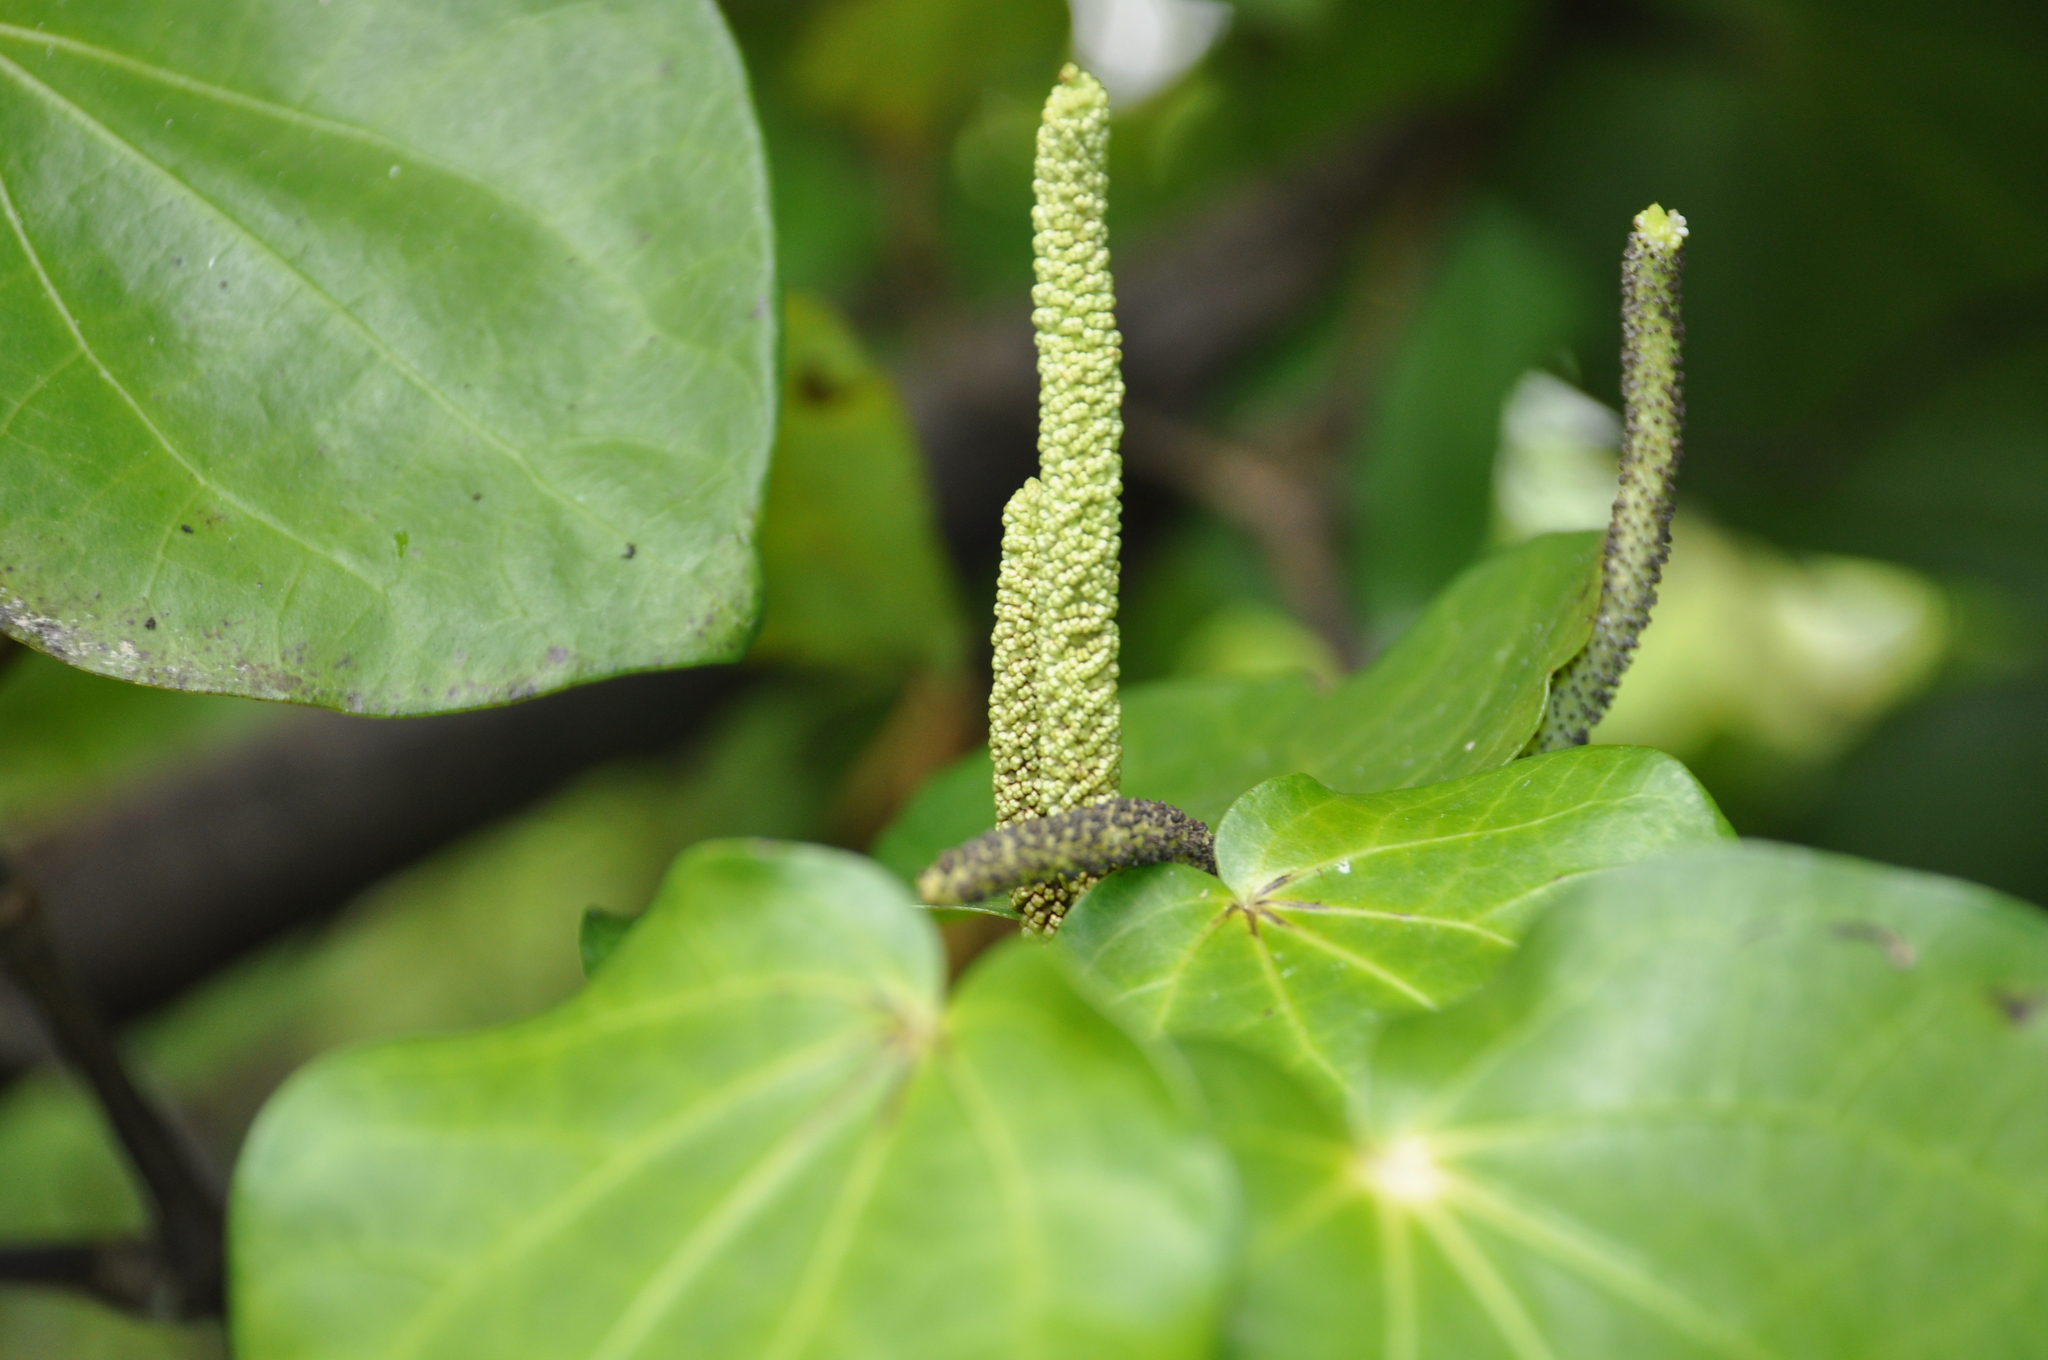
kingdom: Plantae
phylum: Tracheophyta
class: Magnoliopsida
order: Piperales
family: Piperaceae
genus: Macropiper
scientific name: Macropiper excelsum
